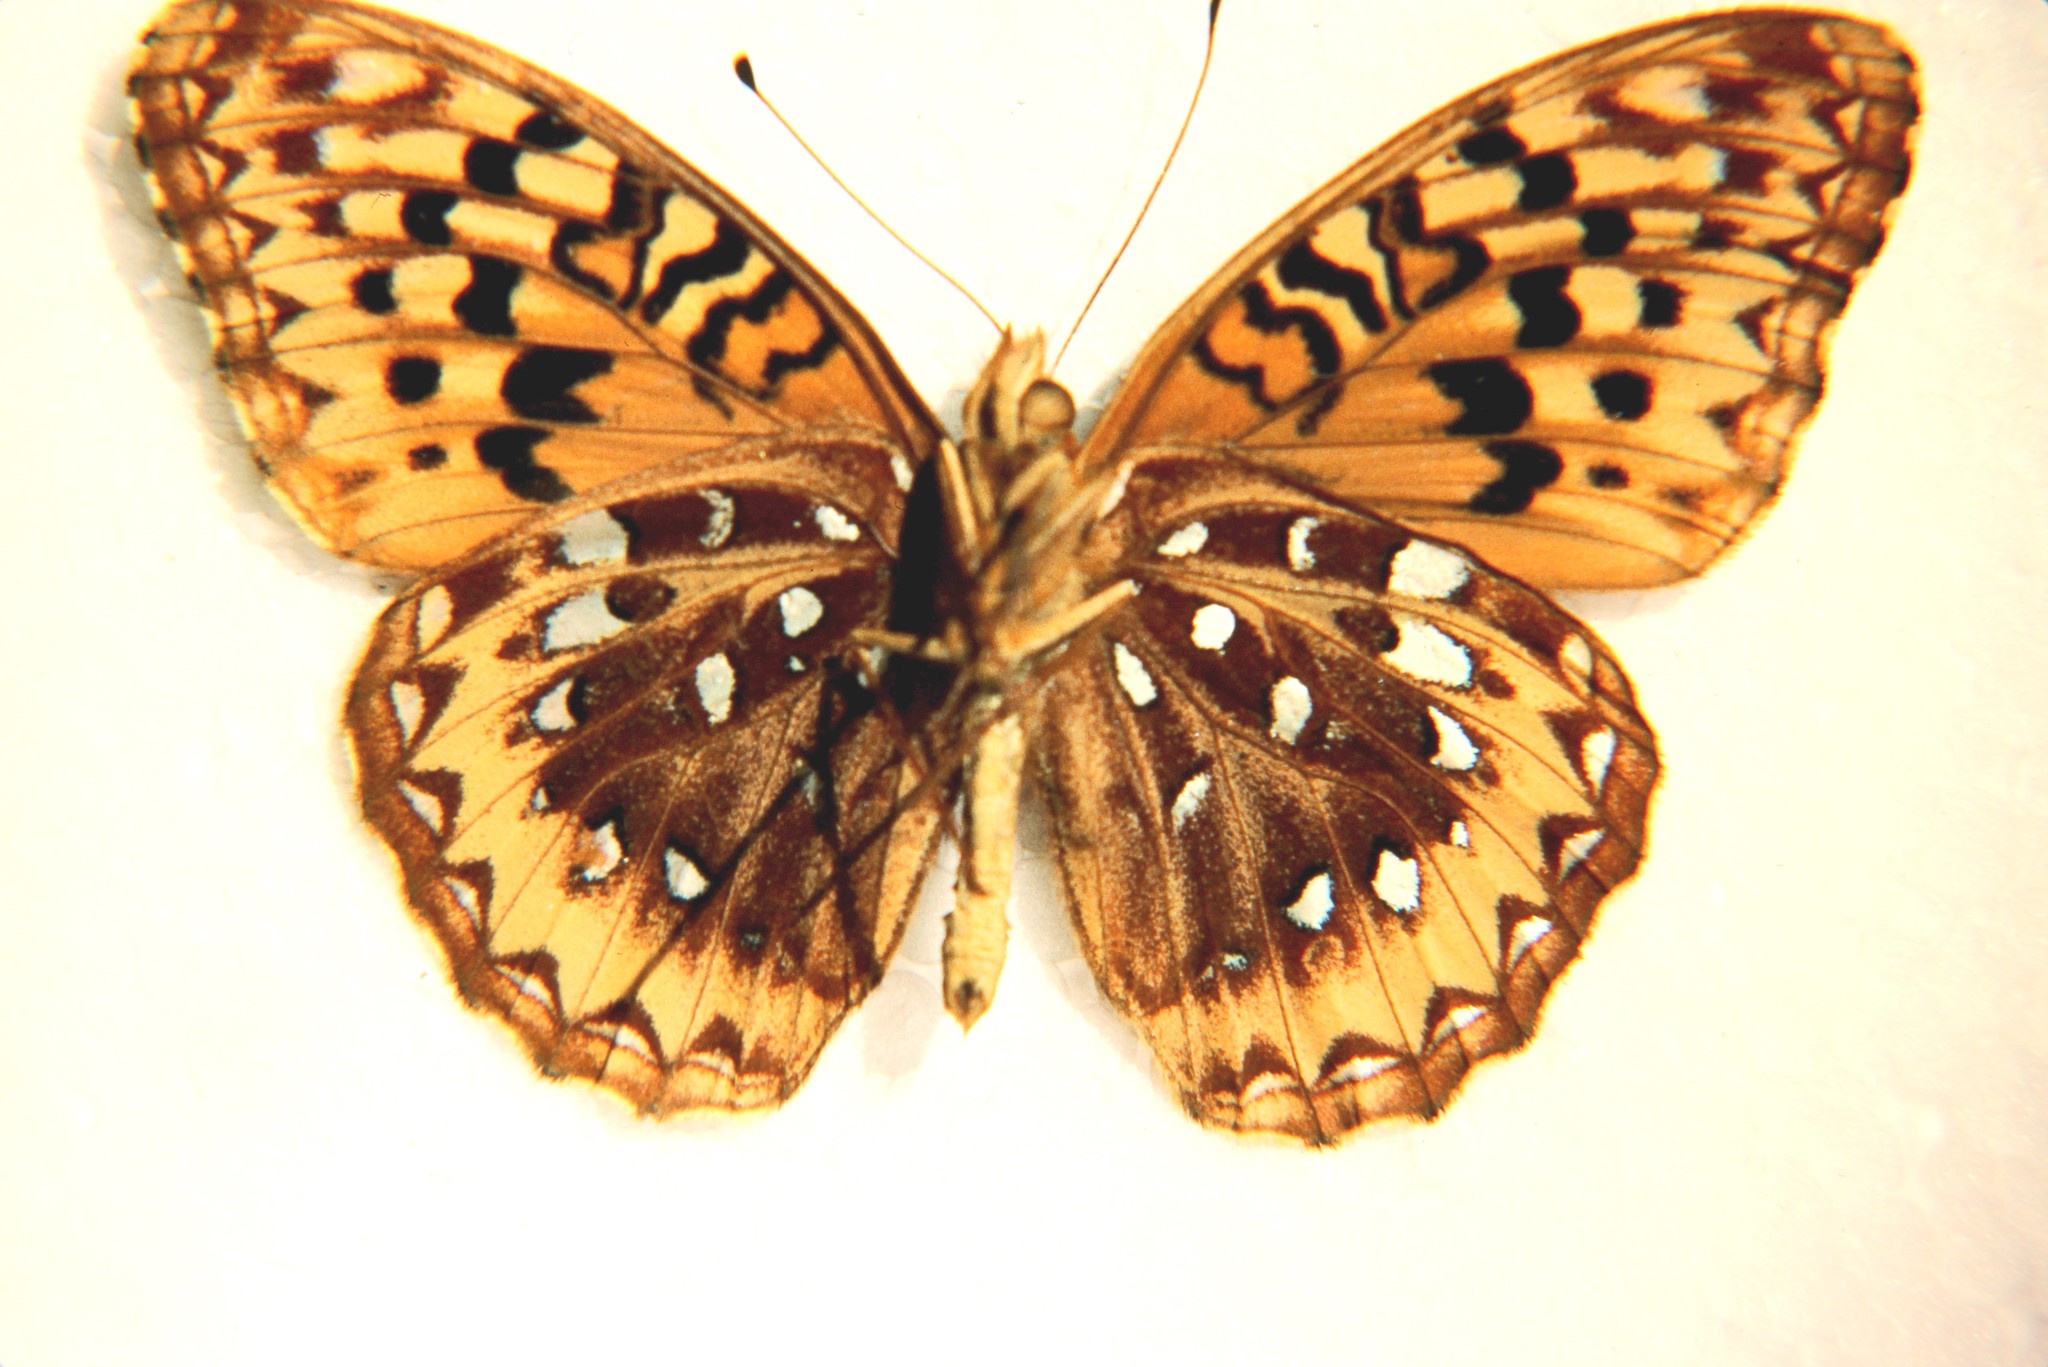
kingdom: Animalia
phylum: Arthropoda
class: Insecta
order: Lepidoptera
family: Nymphalidae
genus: Speyeria
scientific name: Speyeria cybele
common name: Great spangled fritillary
